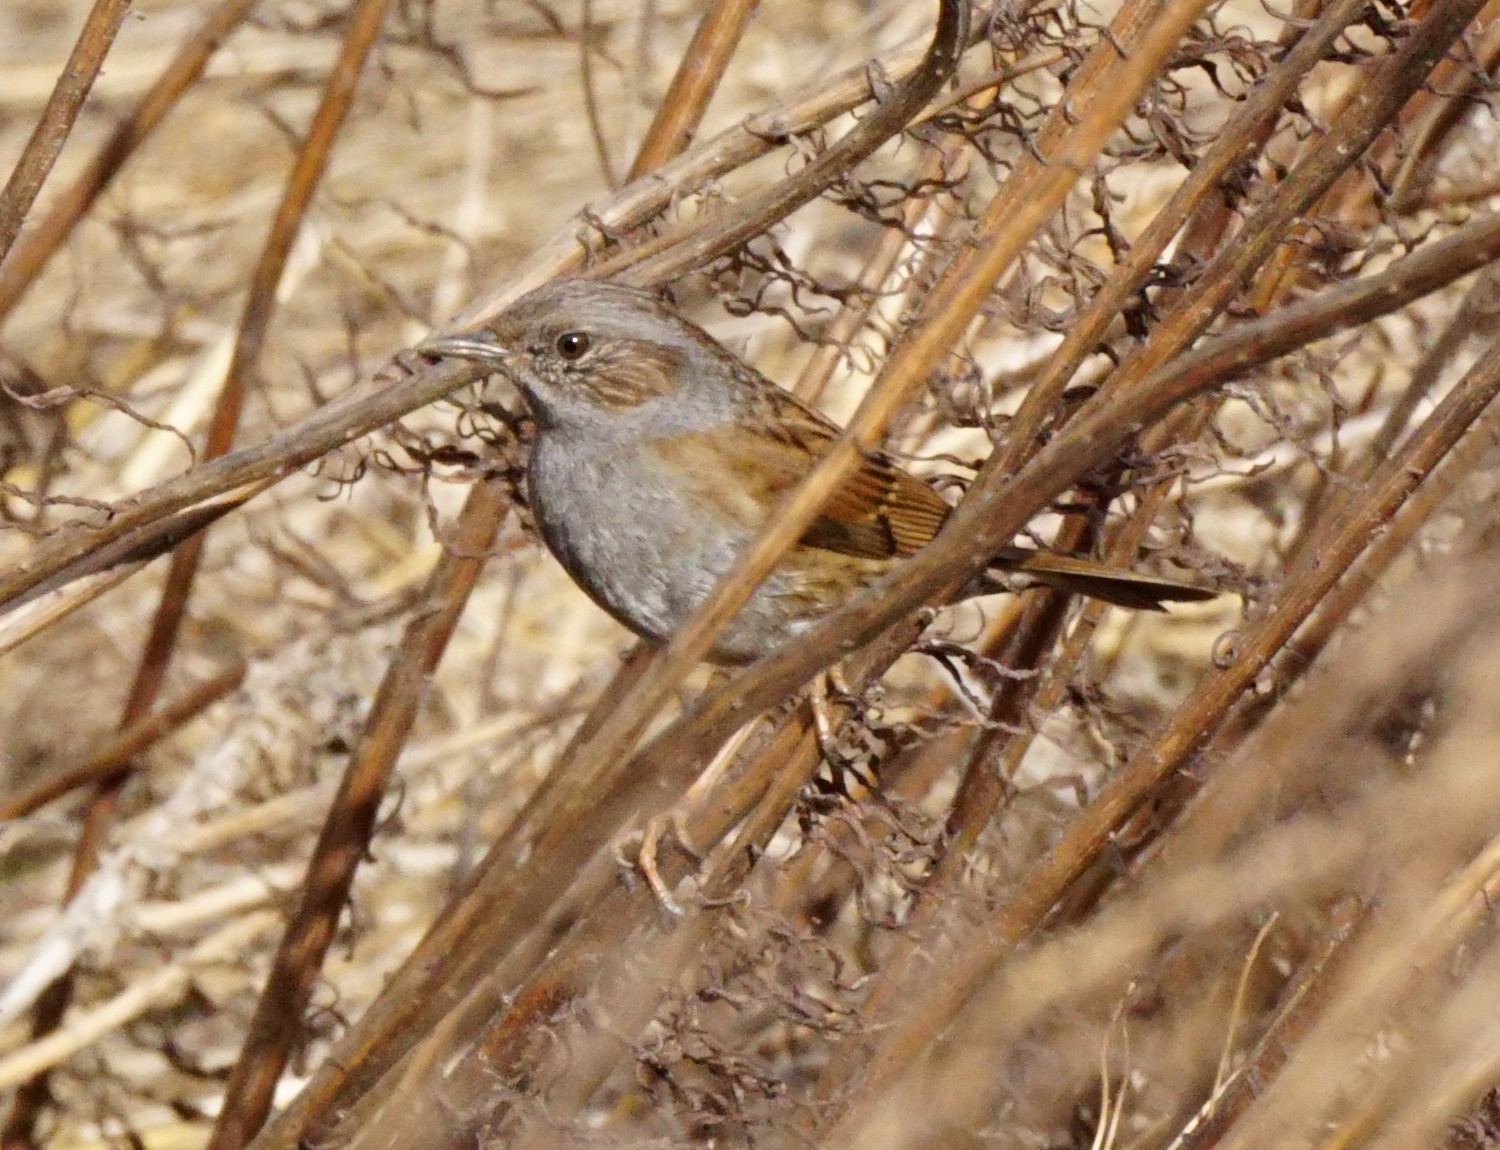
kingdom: Animalia
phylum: Chordata
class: Aves
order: Passeriformes
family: Prunellidae
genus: Prunella
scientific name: Prunella modularis
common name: Dunnock
